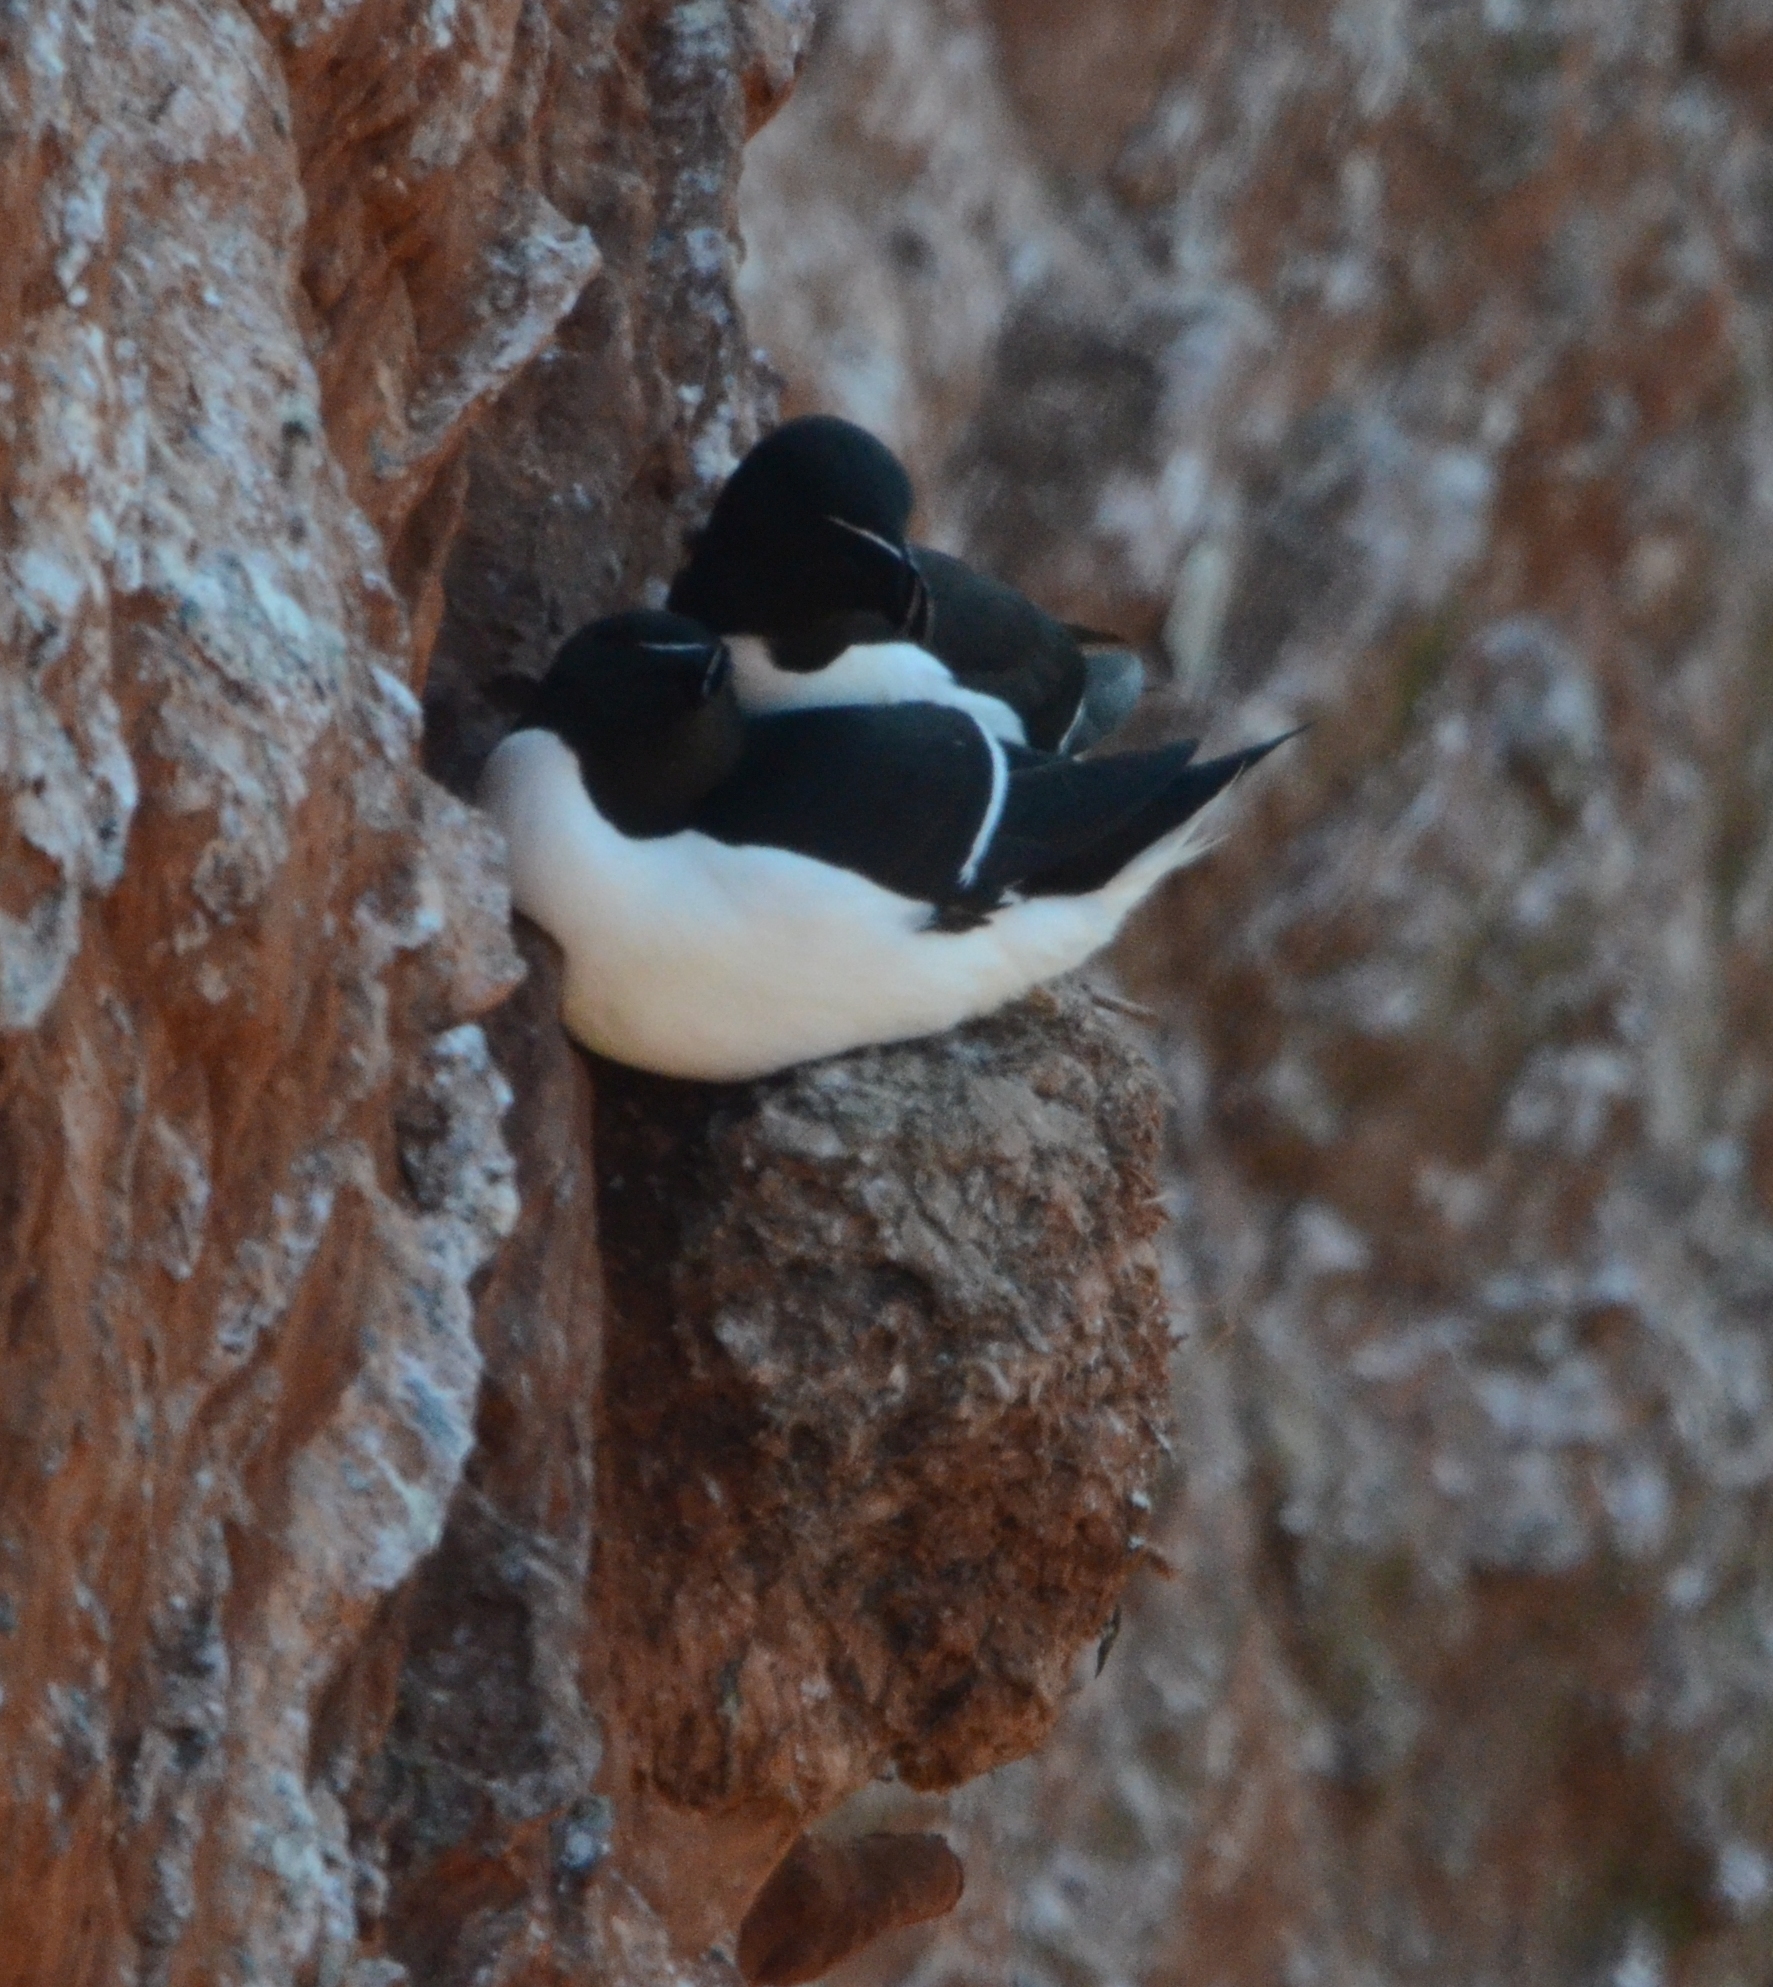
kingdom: Animalia
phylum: Chordata
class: Aves
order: Charadriiformes
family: Alcidae
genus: Alca
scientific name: Alca torda
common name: Razorbill
